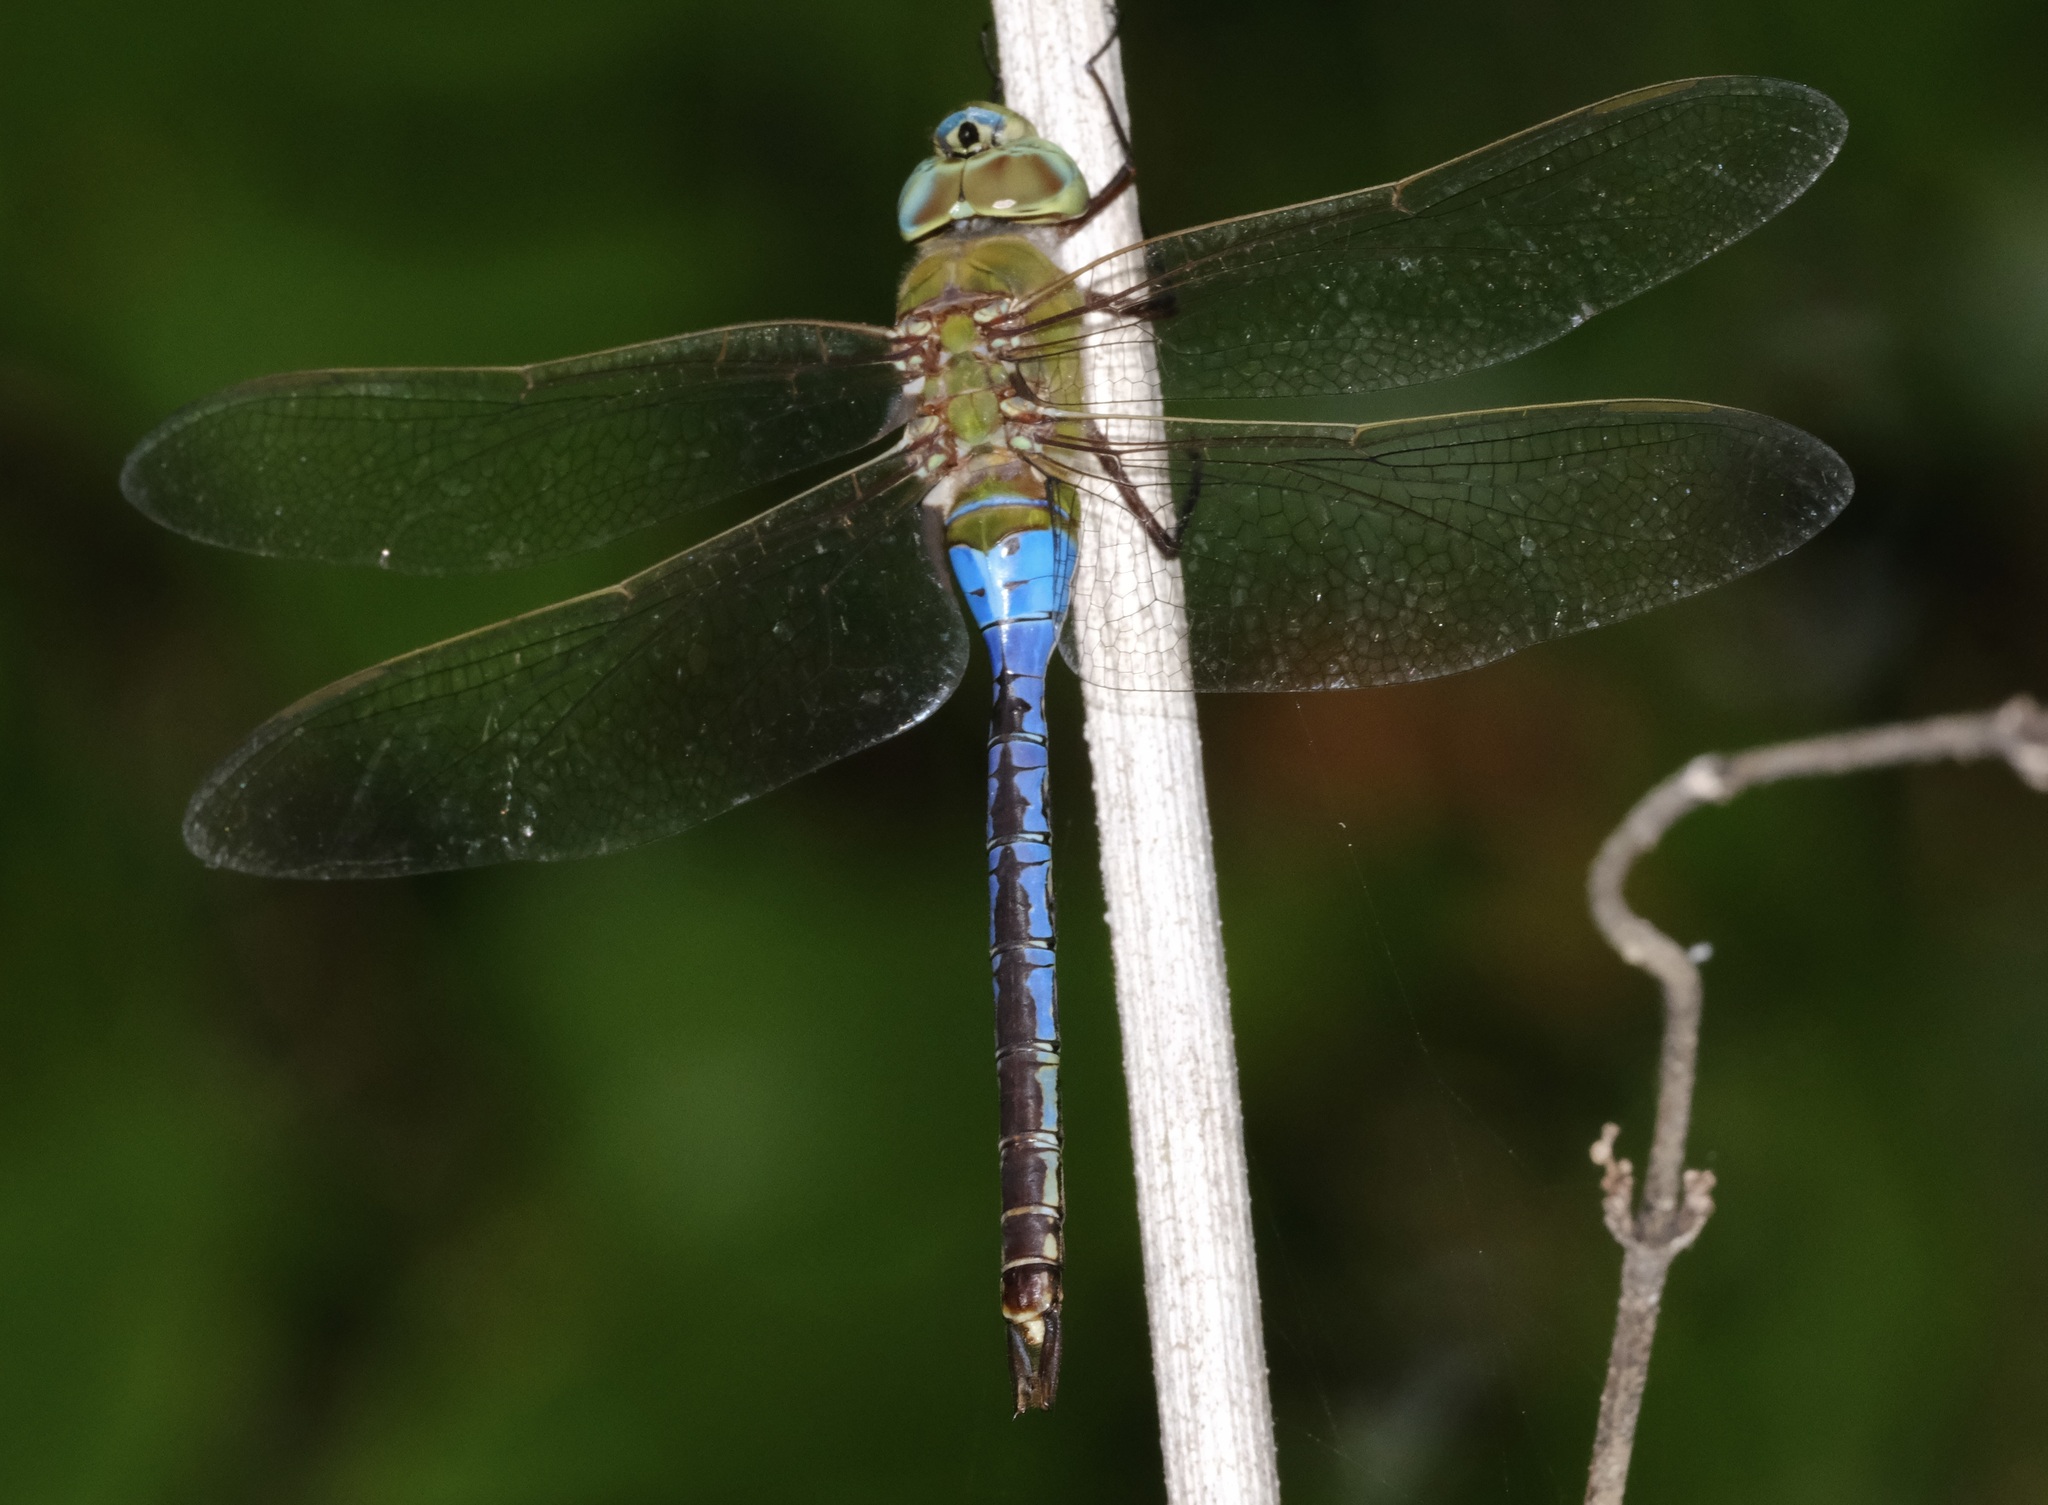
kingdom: Animalia
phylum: Arthropoda
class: Insecta
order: Odonata
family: Aeshnidae
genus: Anax
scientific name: Anax junius
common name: Common green darner
